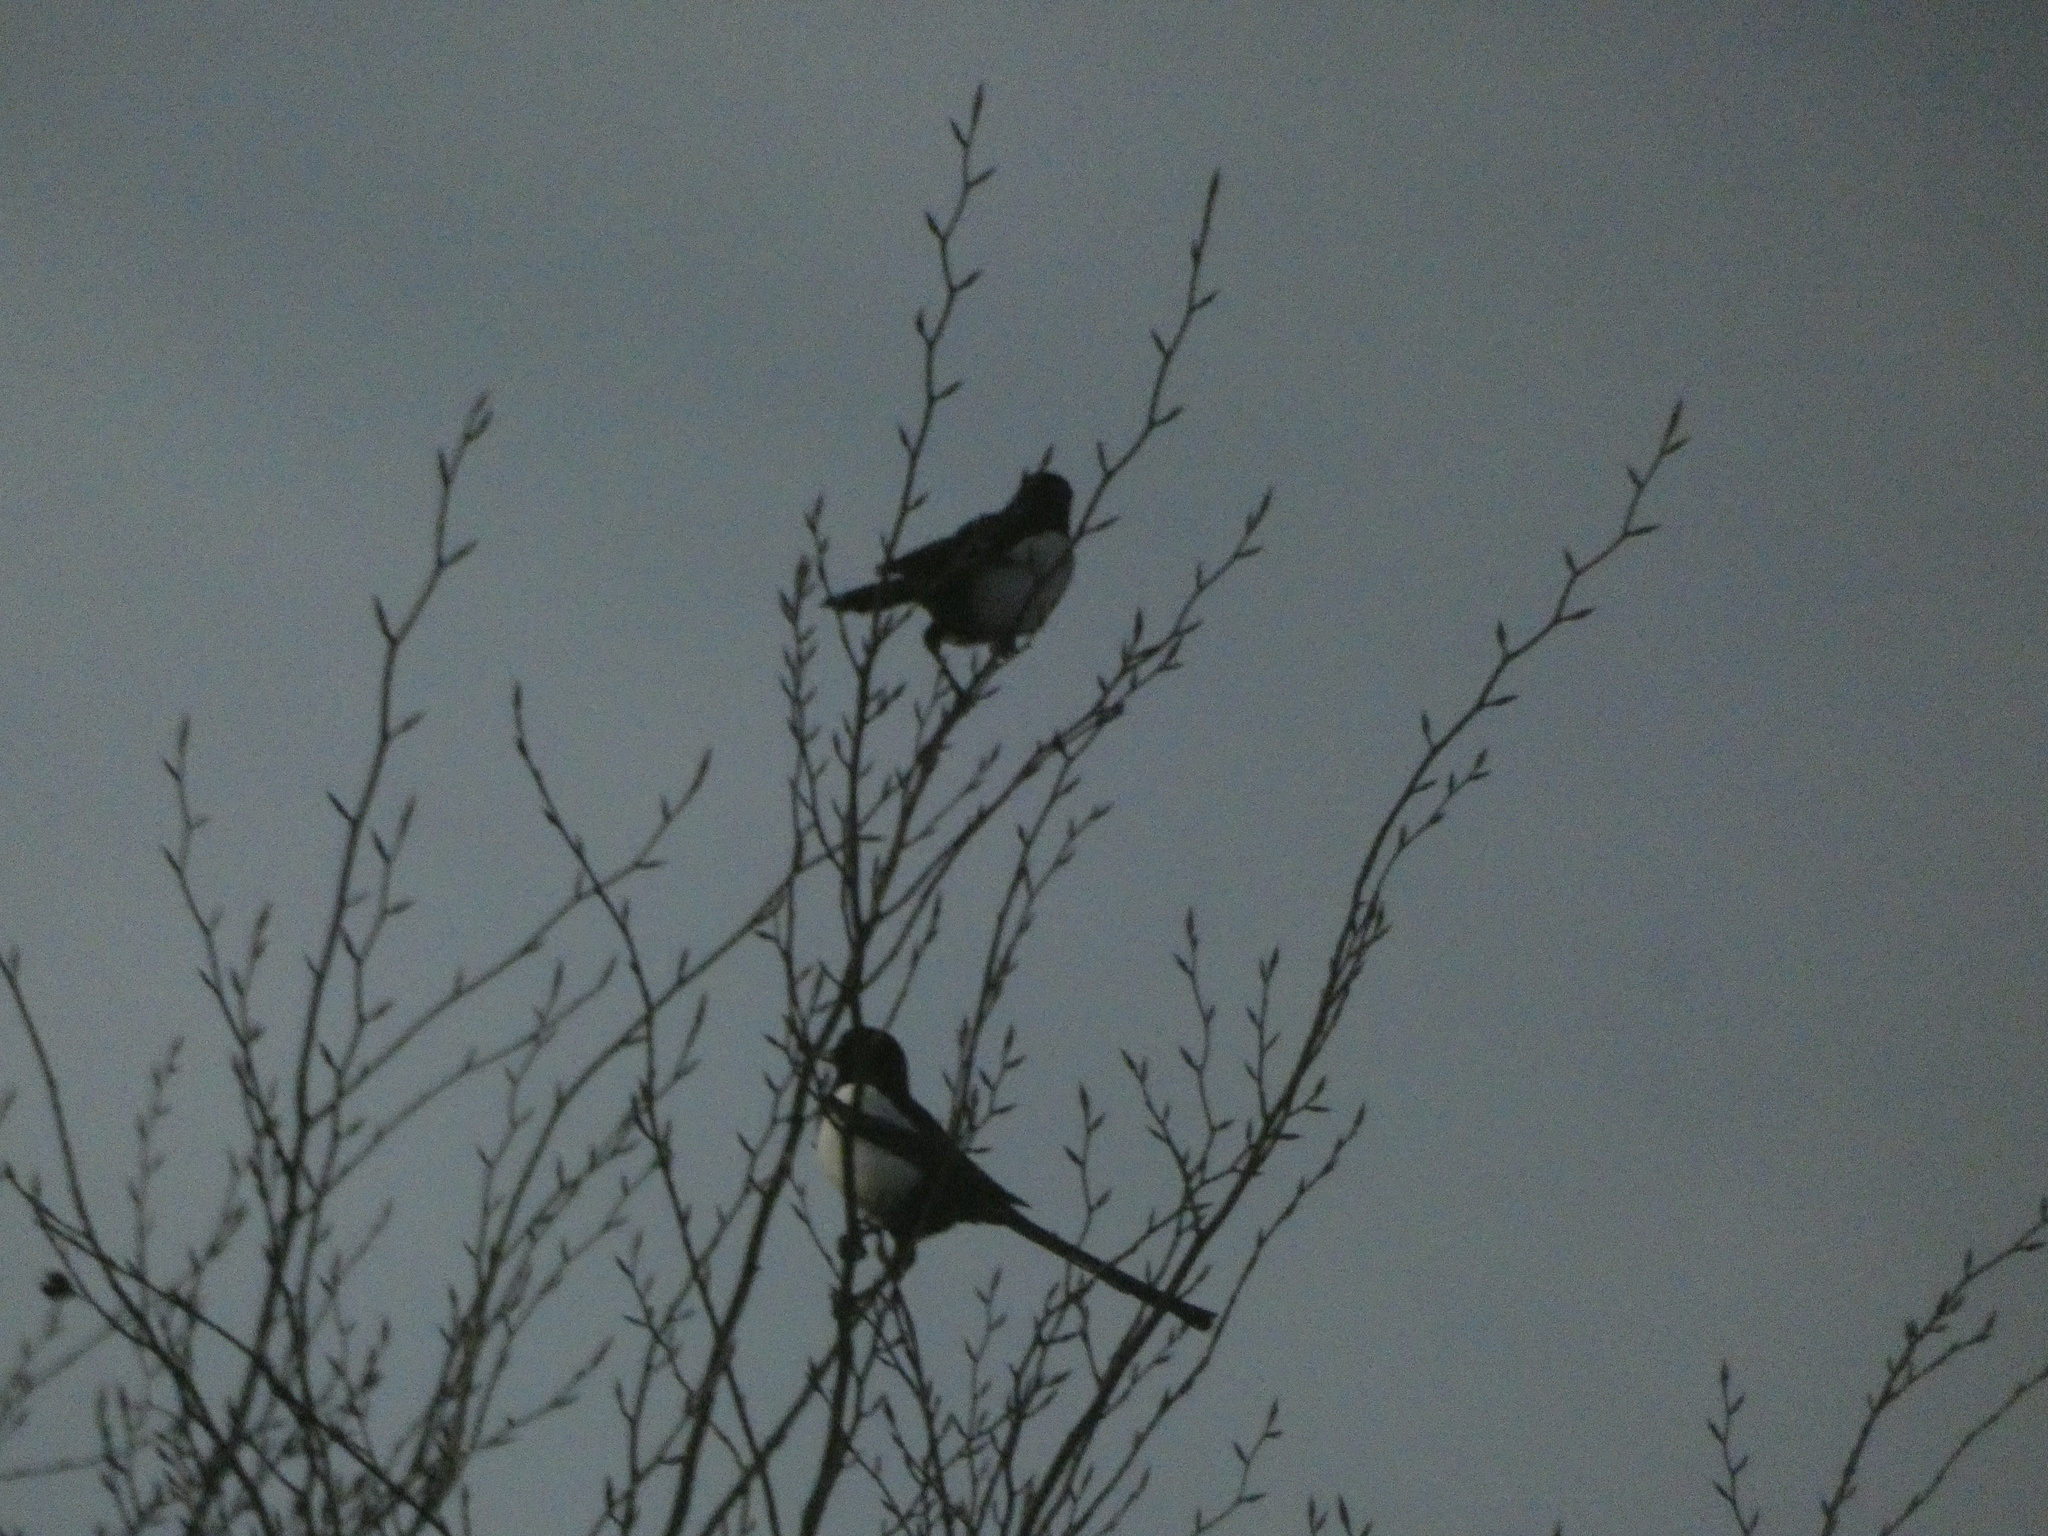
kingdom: Animalia
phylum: Chordata
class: Aves
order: Passeriformes
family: Corvidae
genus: Pica
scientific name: Pica pica
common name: Eurasian magpie
